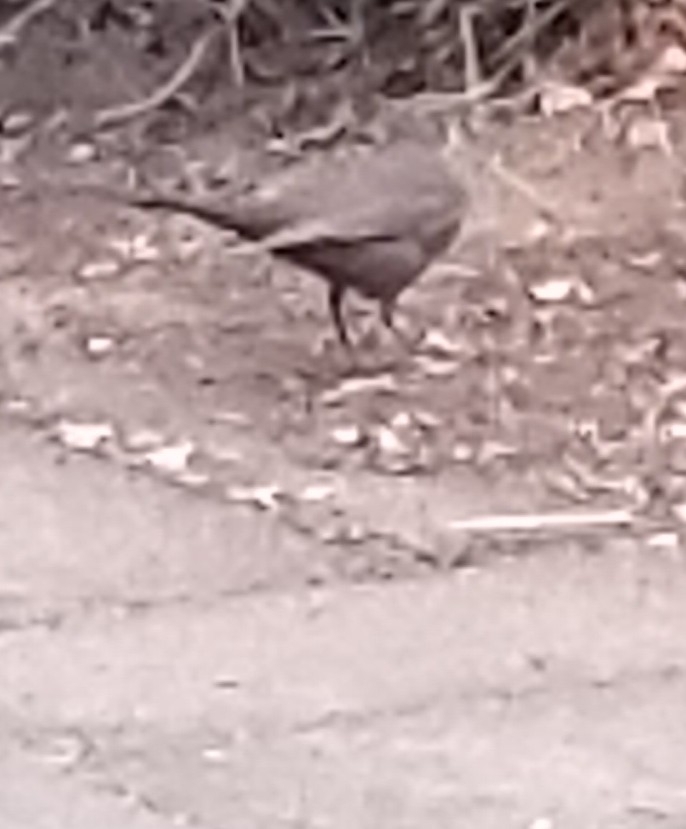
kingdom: Animalia
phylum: Chordata
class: Aves
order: Passeriformes
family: Turdidae
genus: Turdus
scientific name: Turdus merula
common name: Common blackbird
